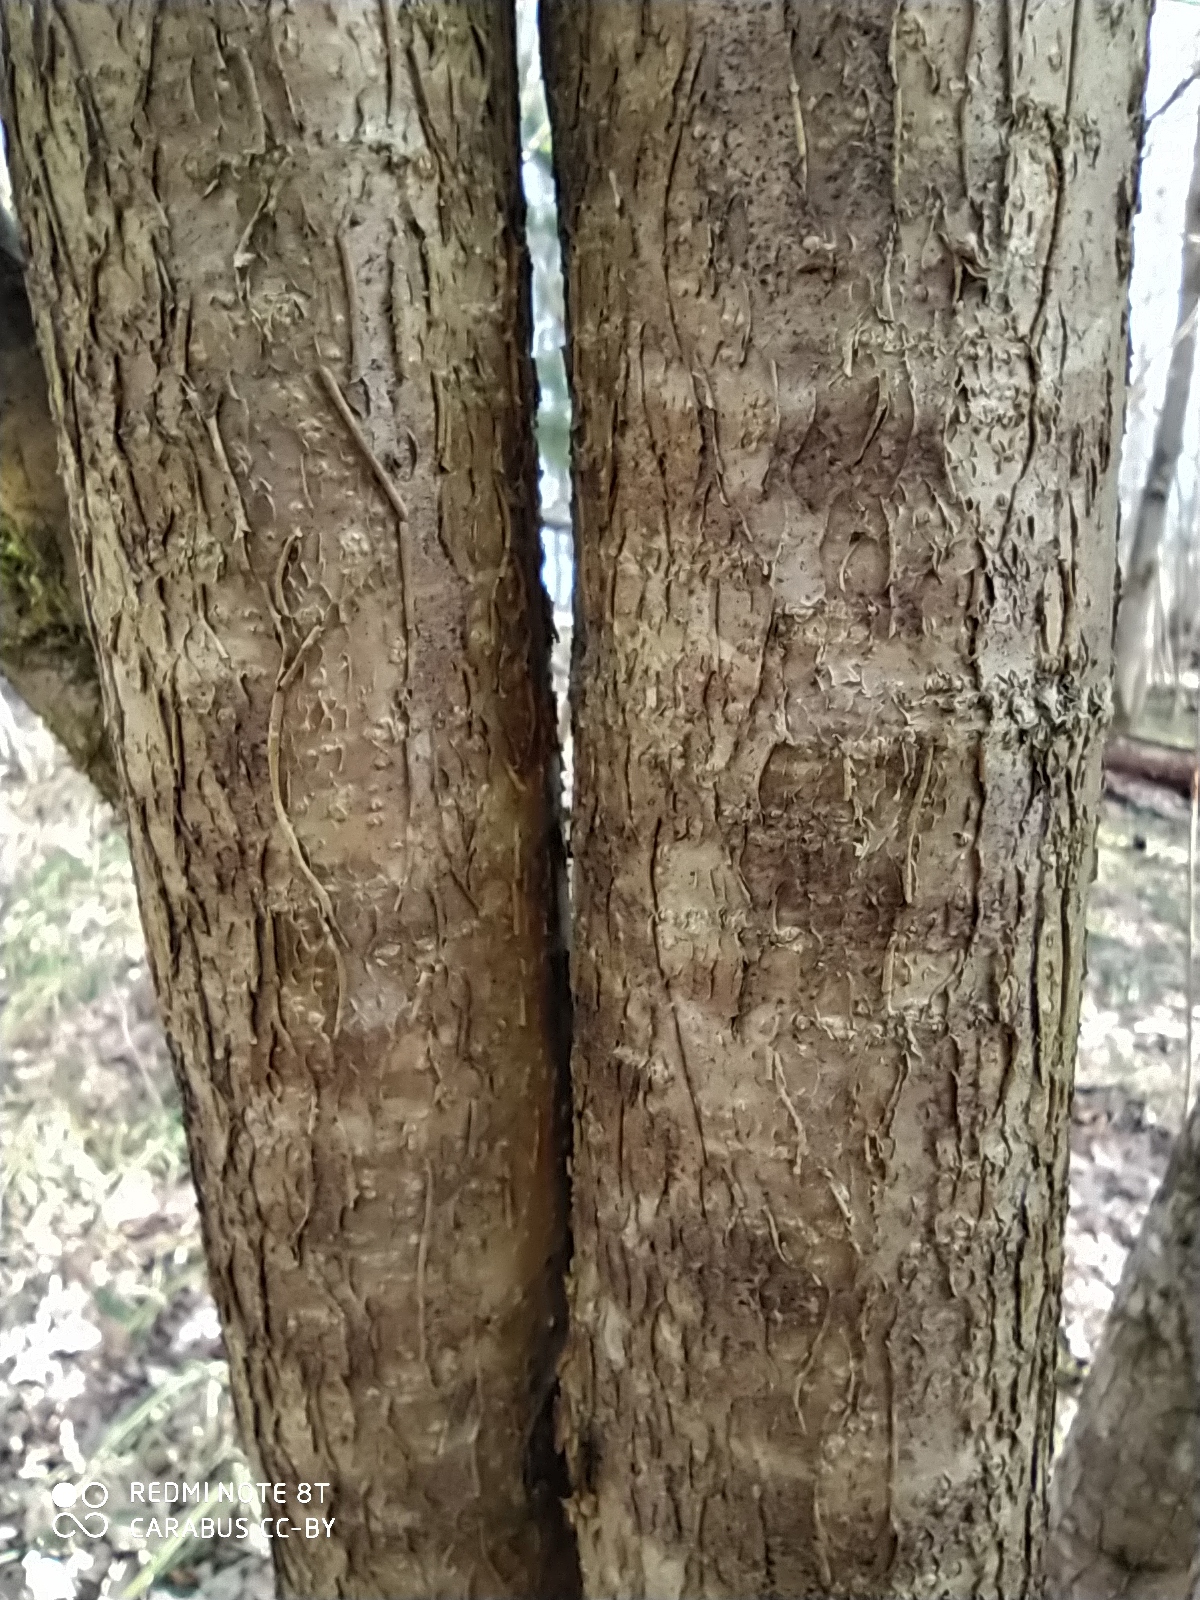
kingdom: Plantae
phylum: Tracheophyta
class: Magnoliopsida
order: Fagales
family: Betulaceae
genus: Corylus
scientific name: Corylus avellana
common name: European hazel
